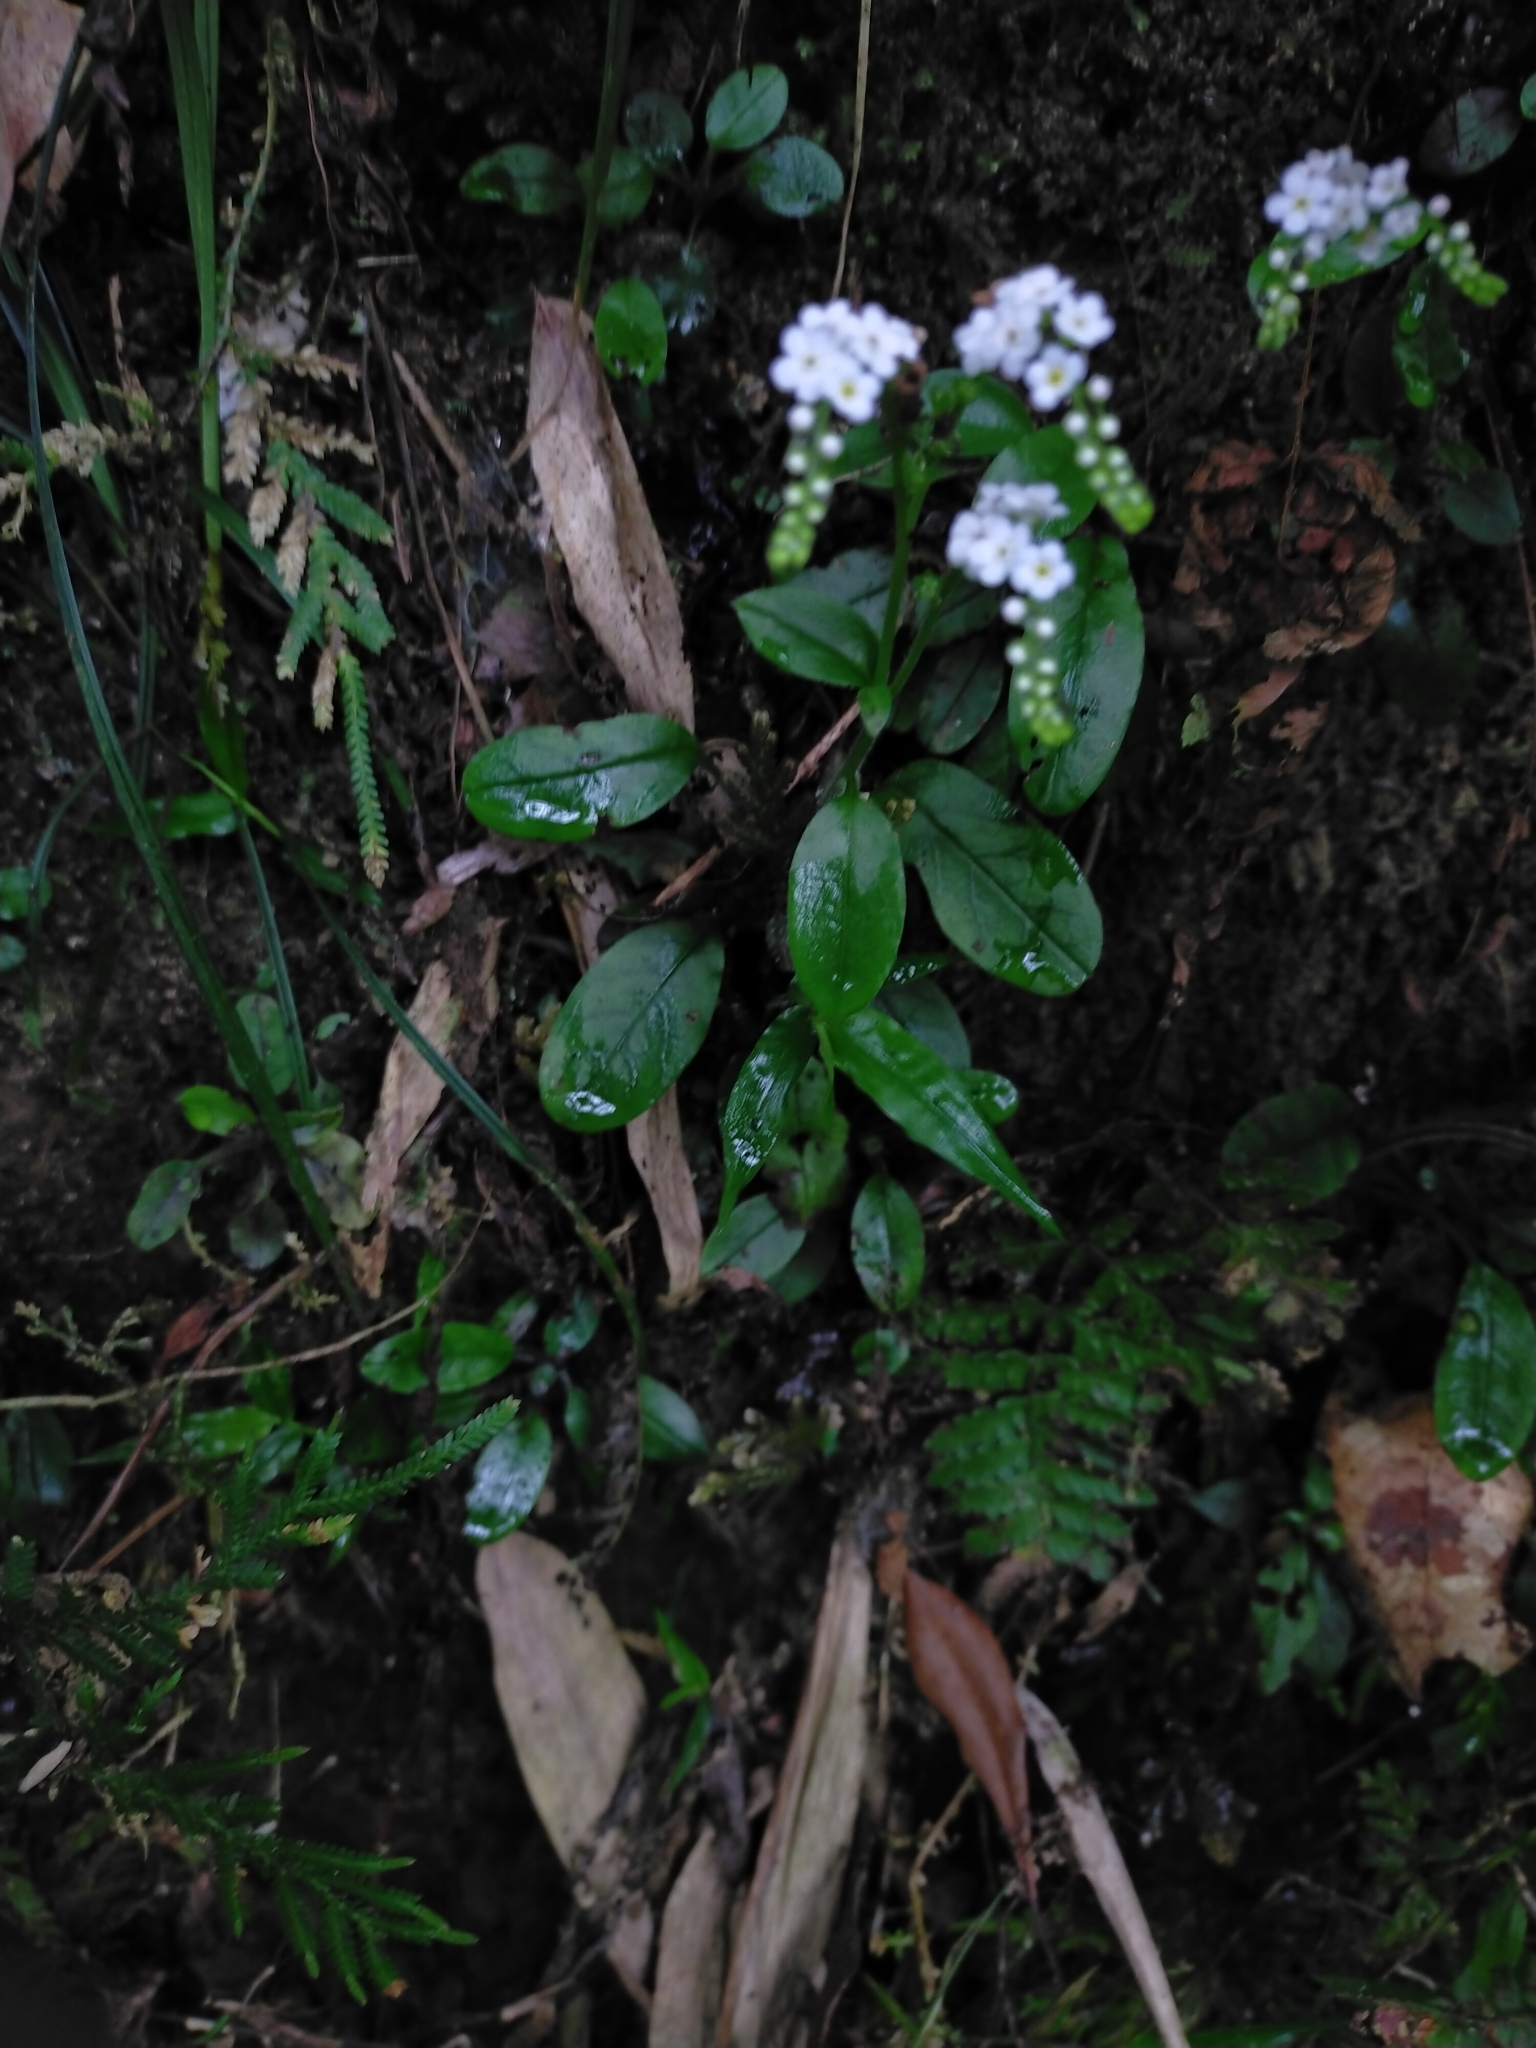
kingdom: Plantae
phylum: Tracheophyta
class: Magnoliopsida
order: Boraginales
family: Boraginaceae
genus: Trigonotis
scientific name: Trigonotis formosana
